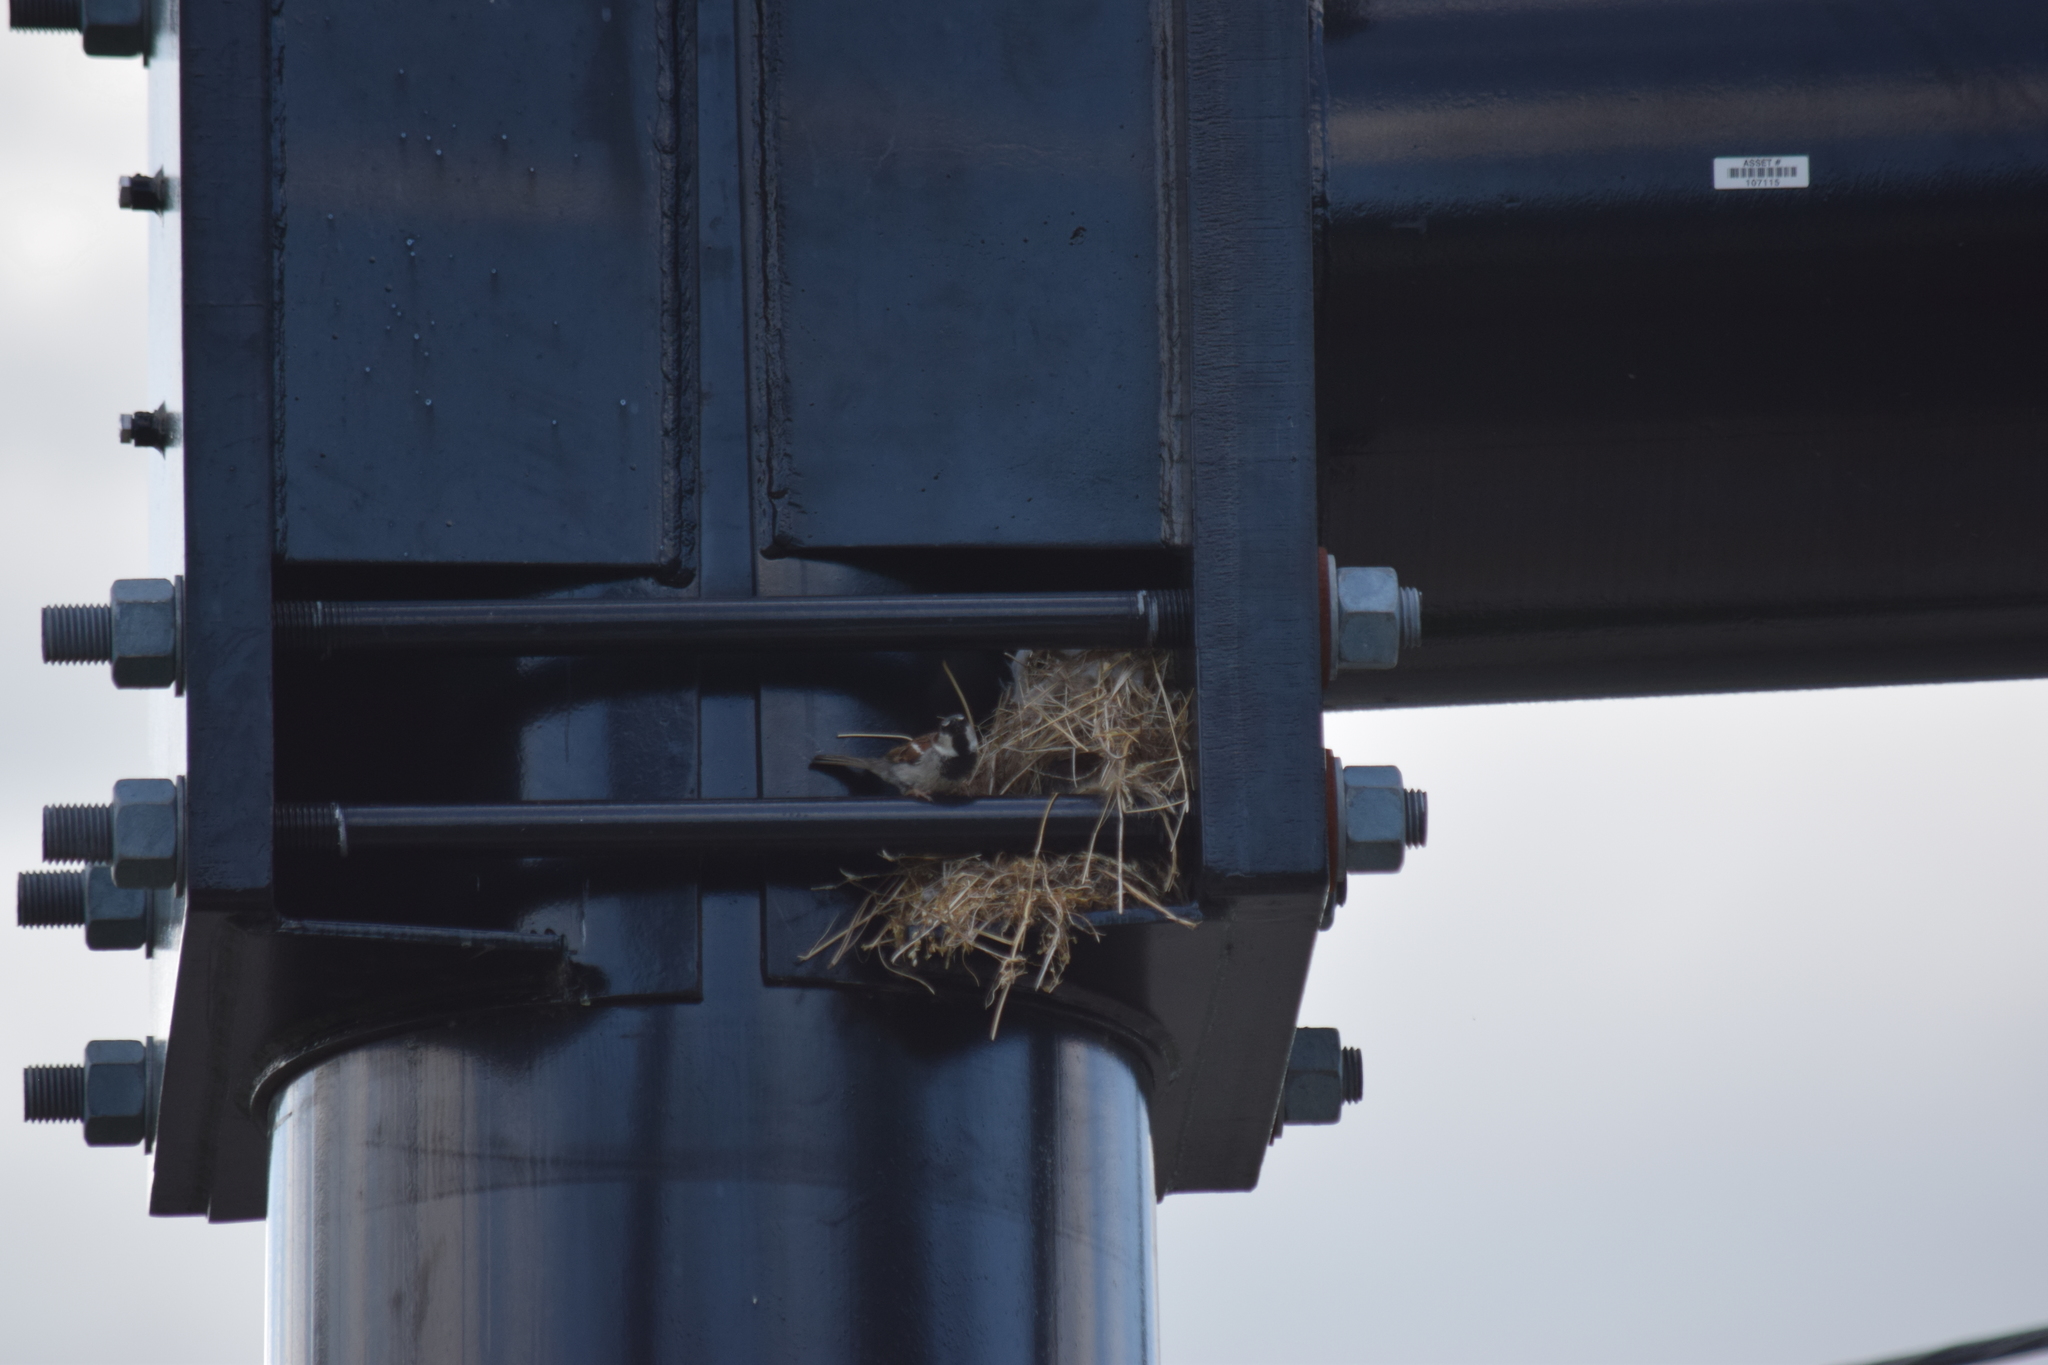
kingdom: Animalia
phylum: Chordata
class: Aves
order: Passeriformes
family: Passeridae
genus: Passer
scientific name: Passer domesticus
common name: House sparrow
